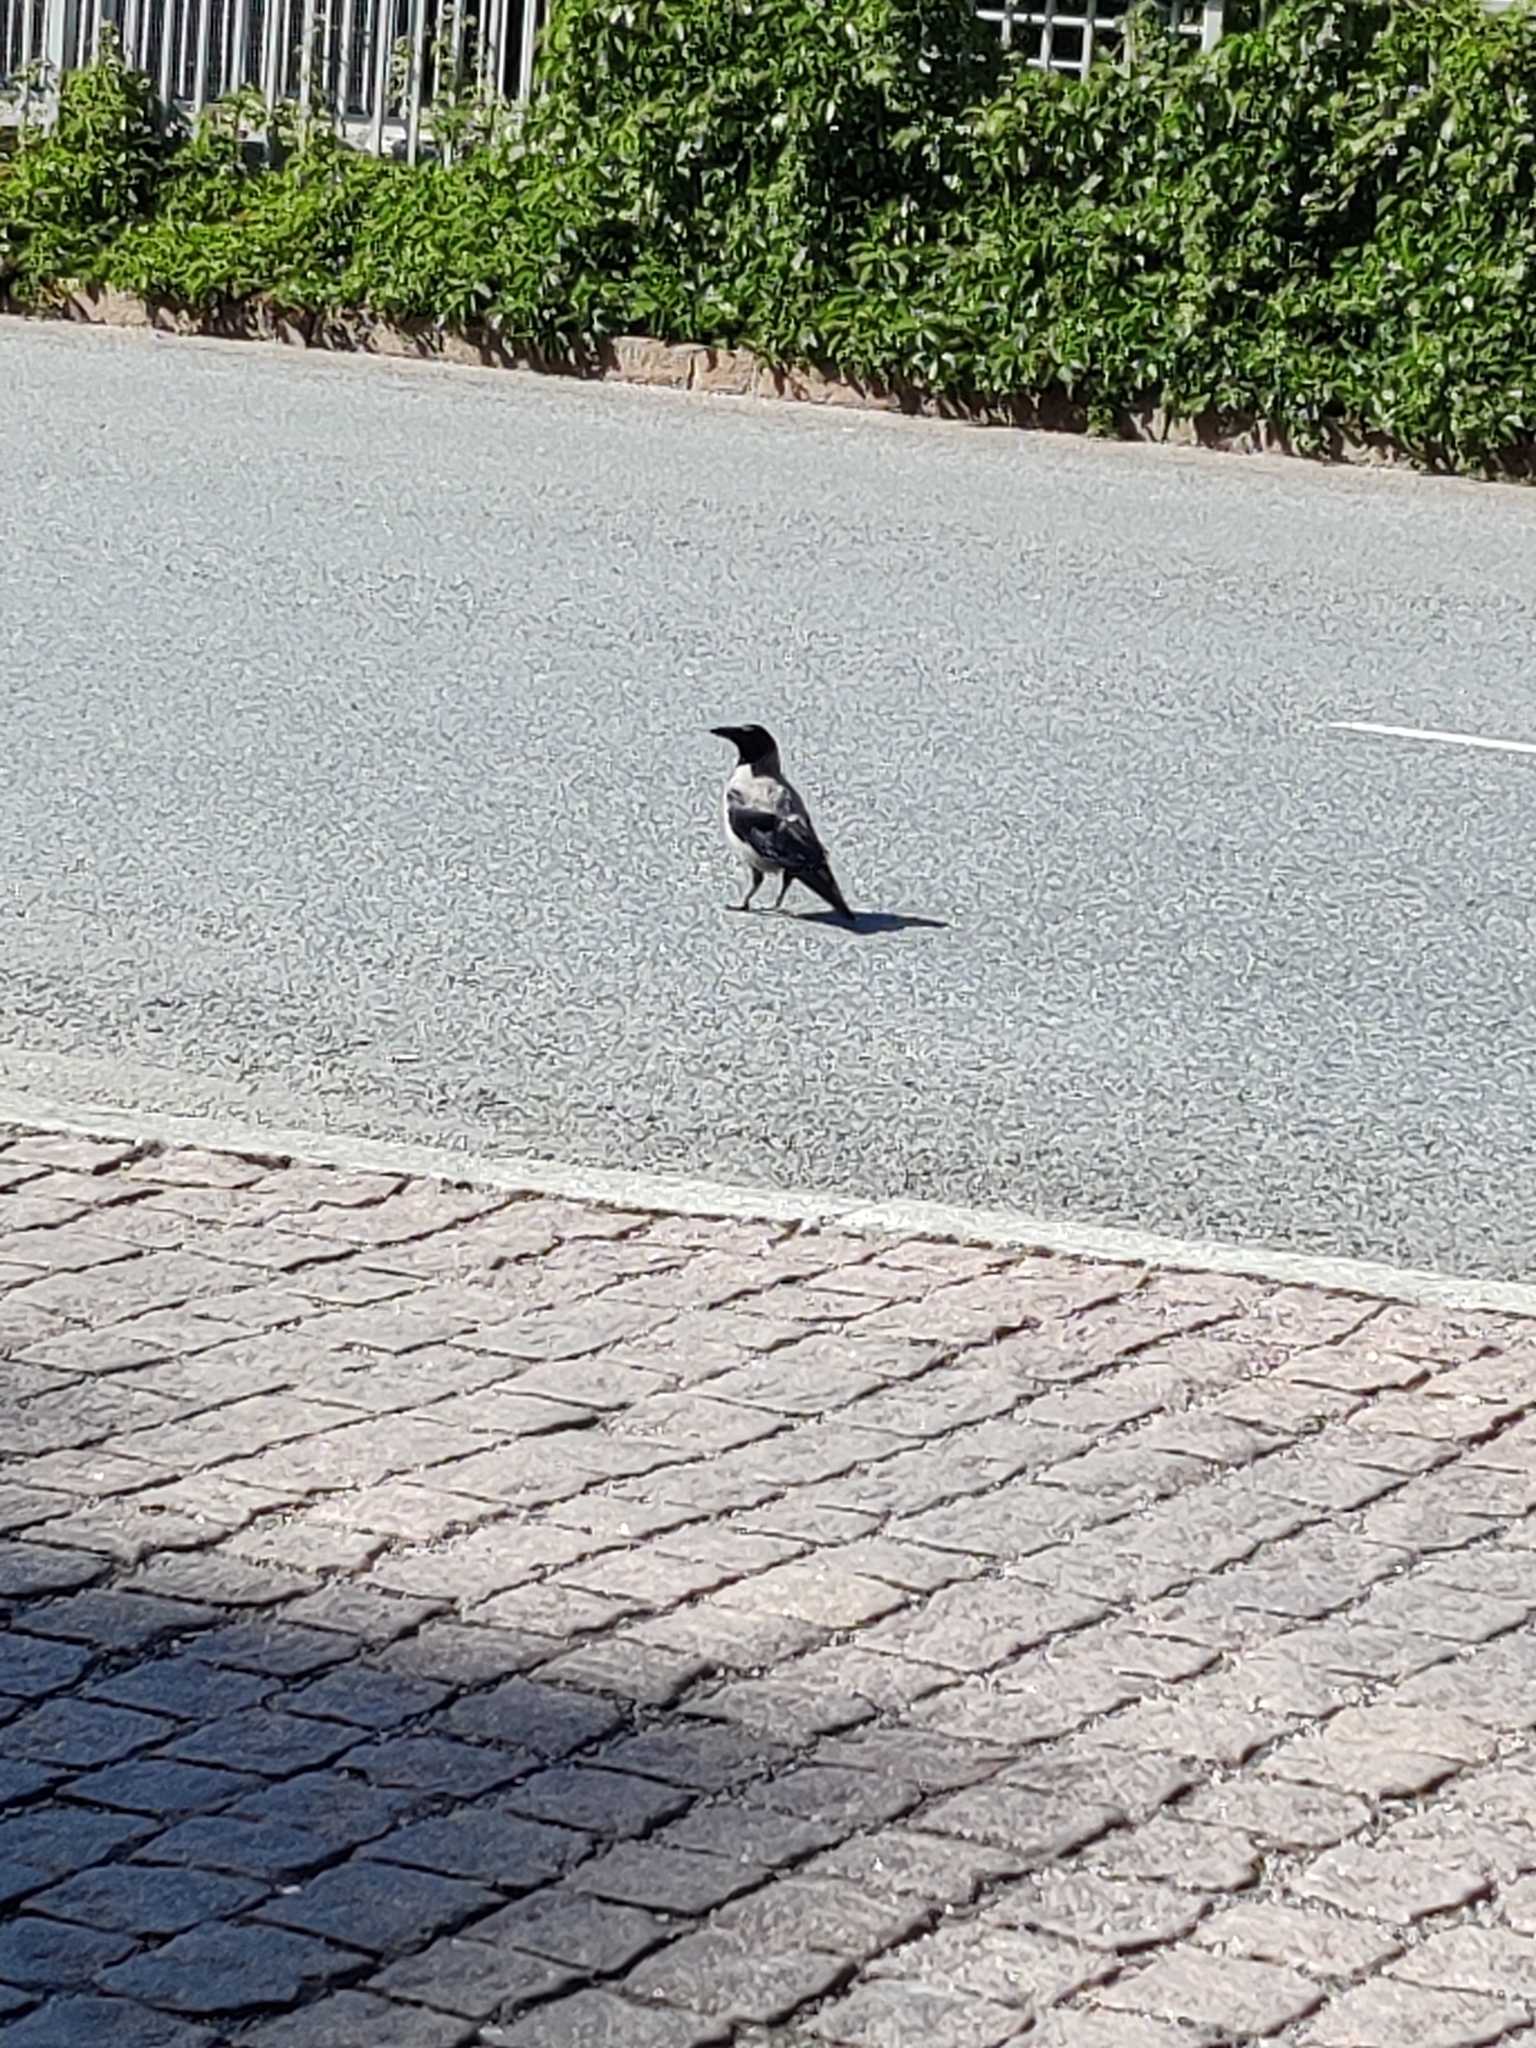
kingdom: Animalia
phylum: Chordata
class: Aves
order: Passeriformes
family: Corvidae
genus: Corvus
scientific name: Corvus cornix
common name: Hooded crow
